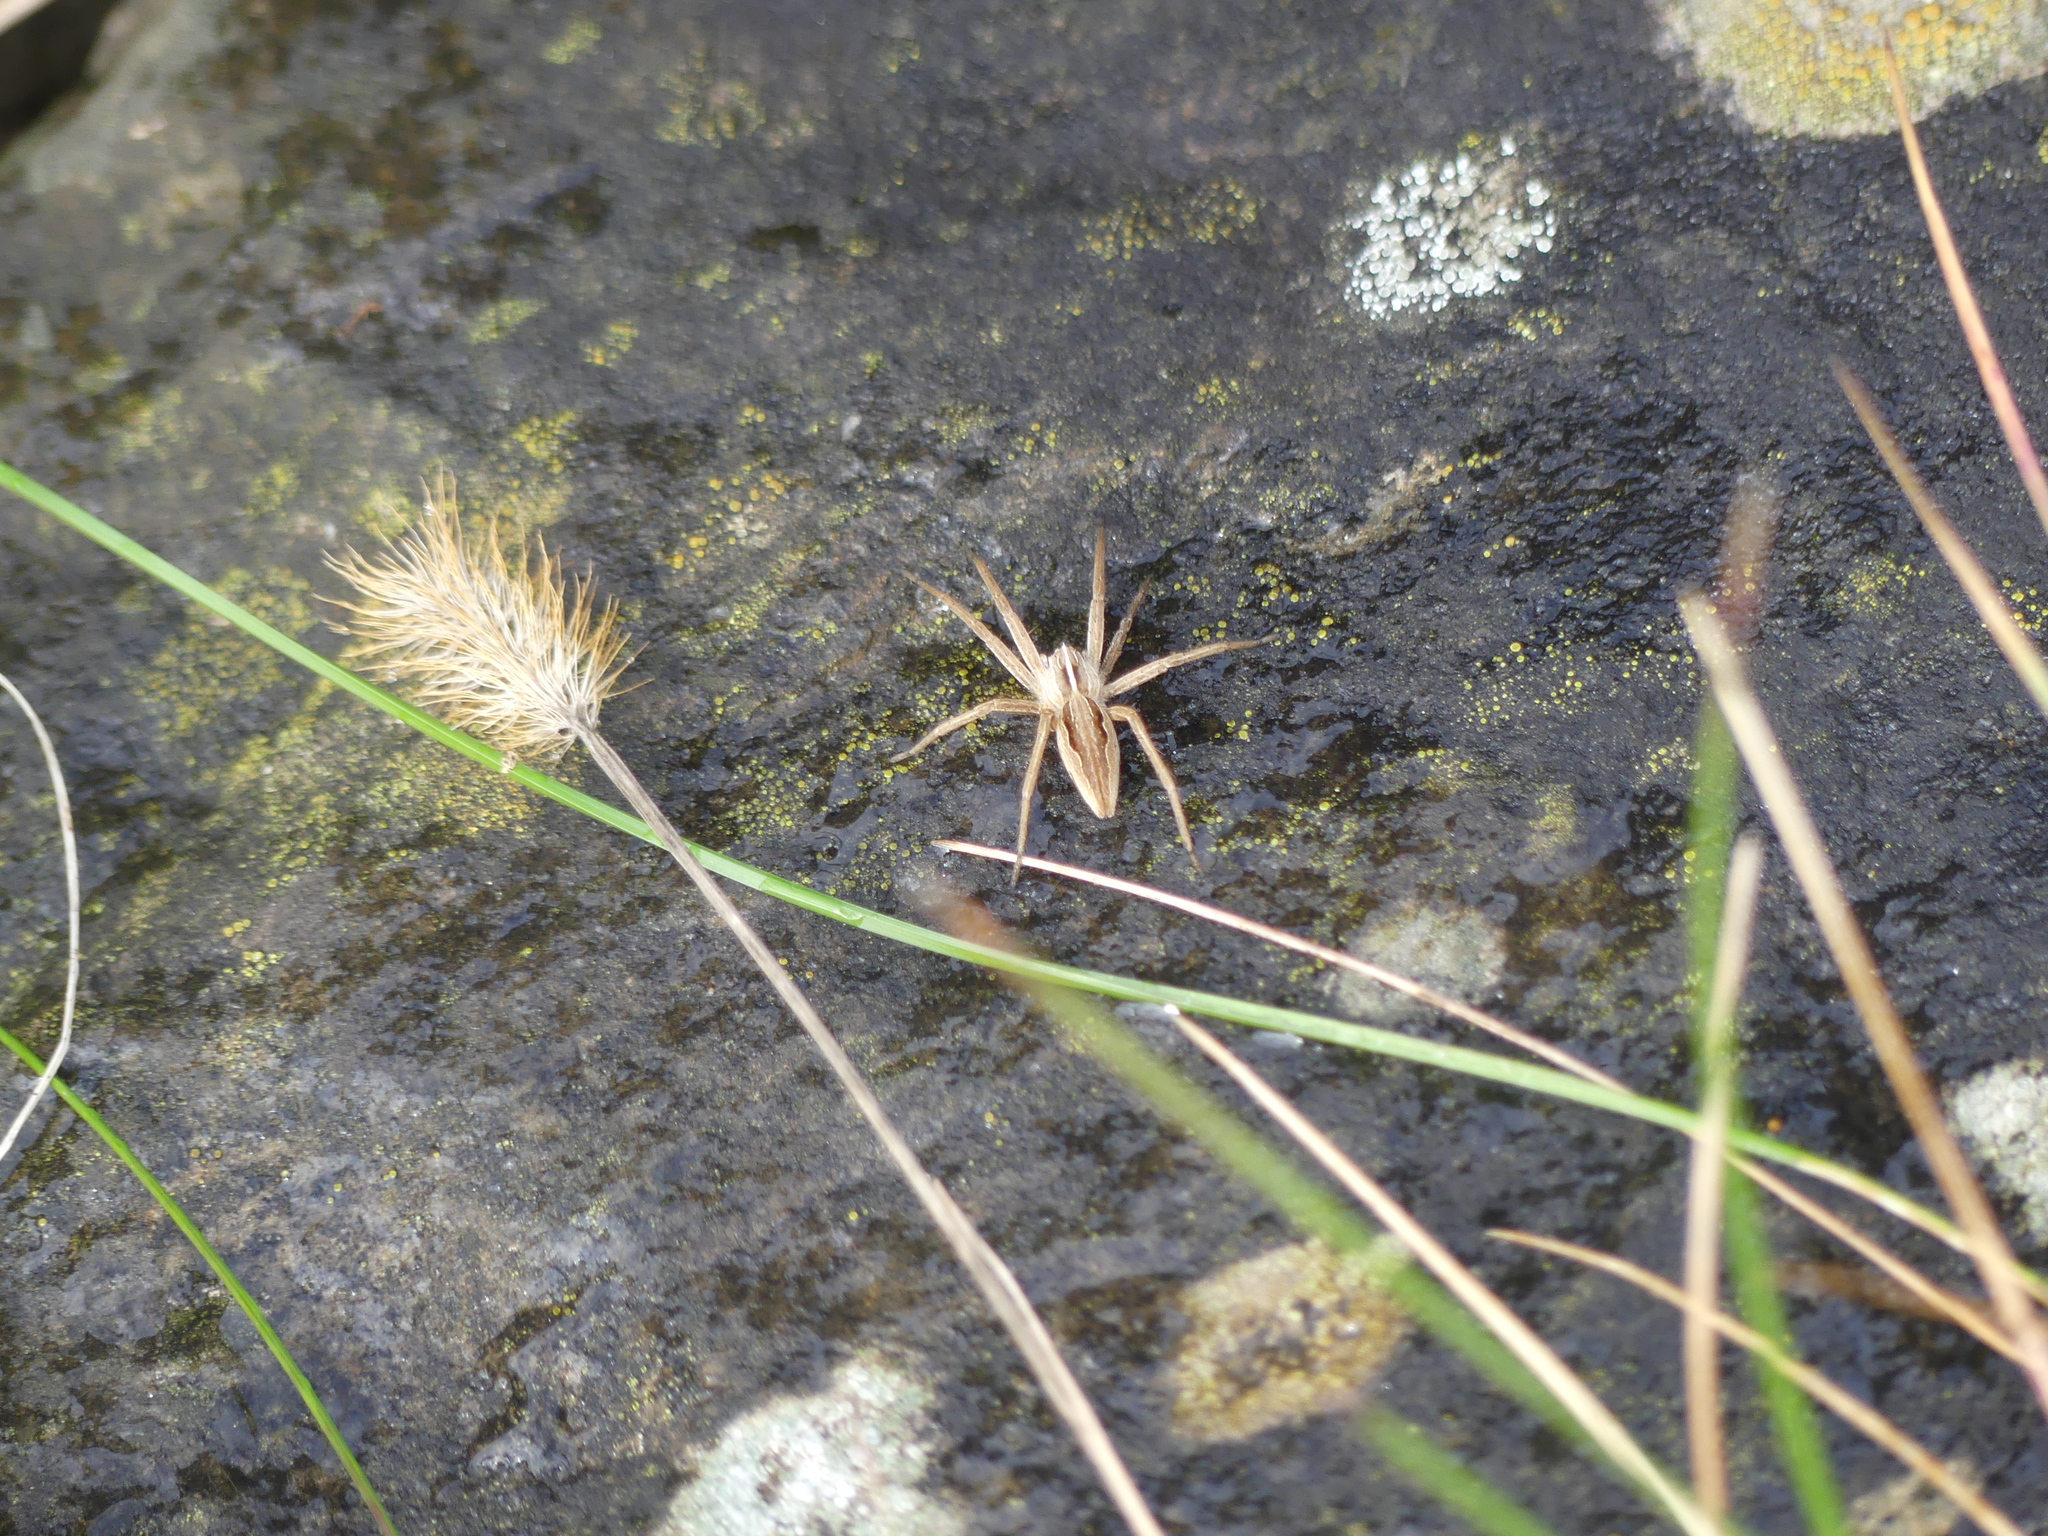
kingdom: Animalia
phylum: Arthropoda
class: Arachnida
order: Araneae
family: Pisauridae
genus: Pisaura
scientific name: Pisaura mirabilis
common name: Tent spider
